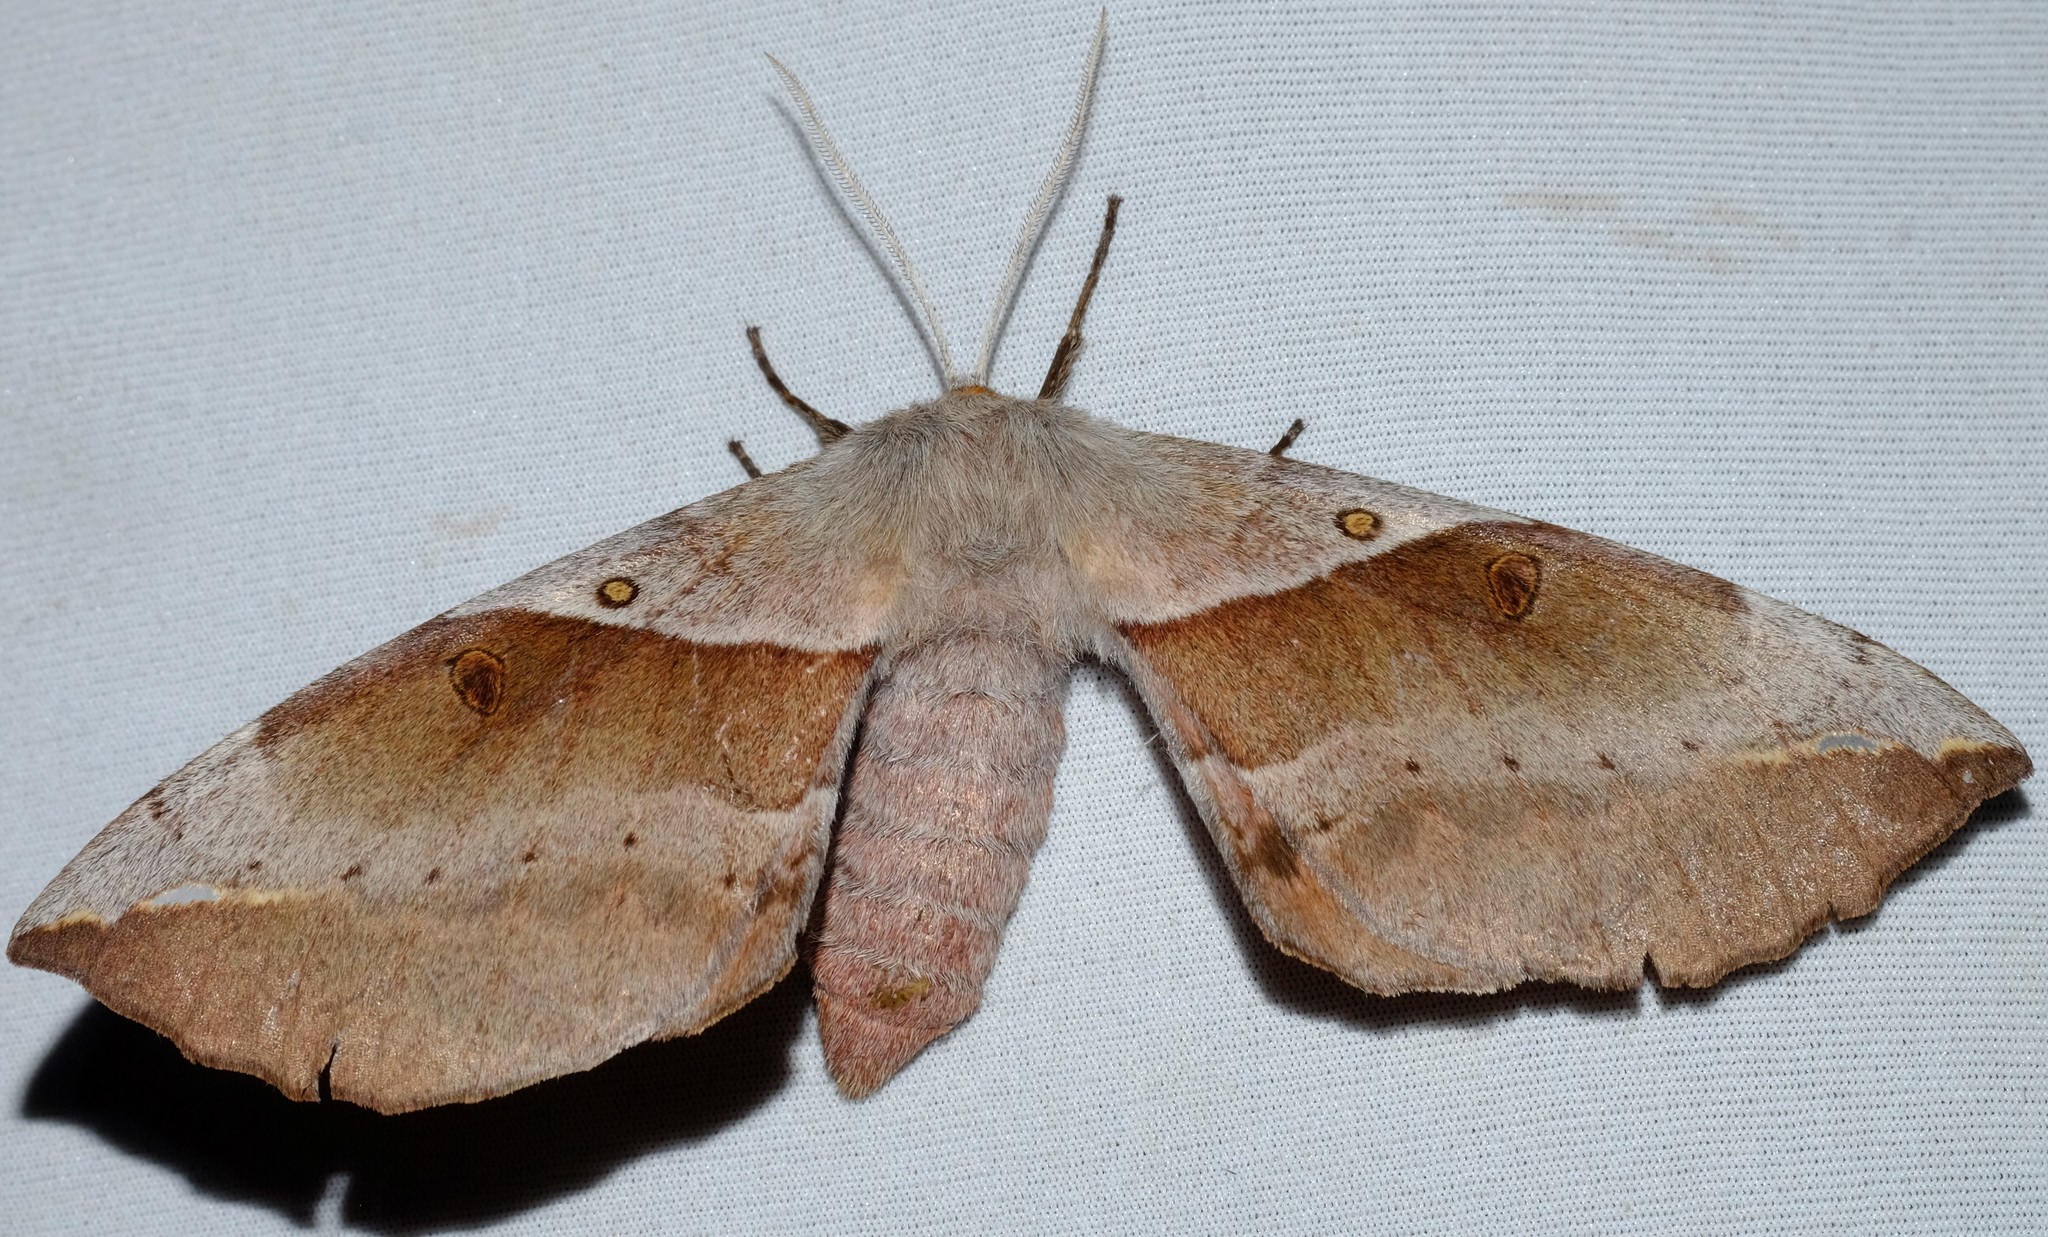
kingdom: Animalia
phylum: Arthropoda
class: Insecta
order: Lepidoptera
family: Anthelidae
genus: Chelepteryx
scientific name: Chelepteryx chalepteryx
